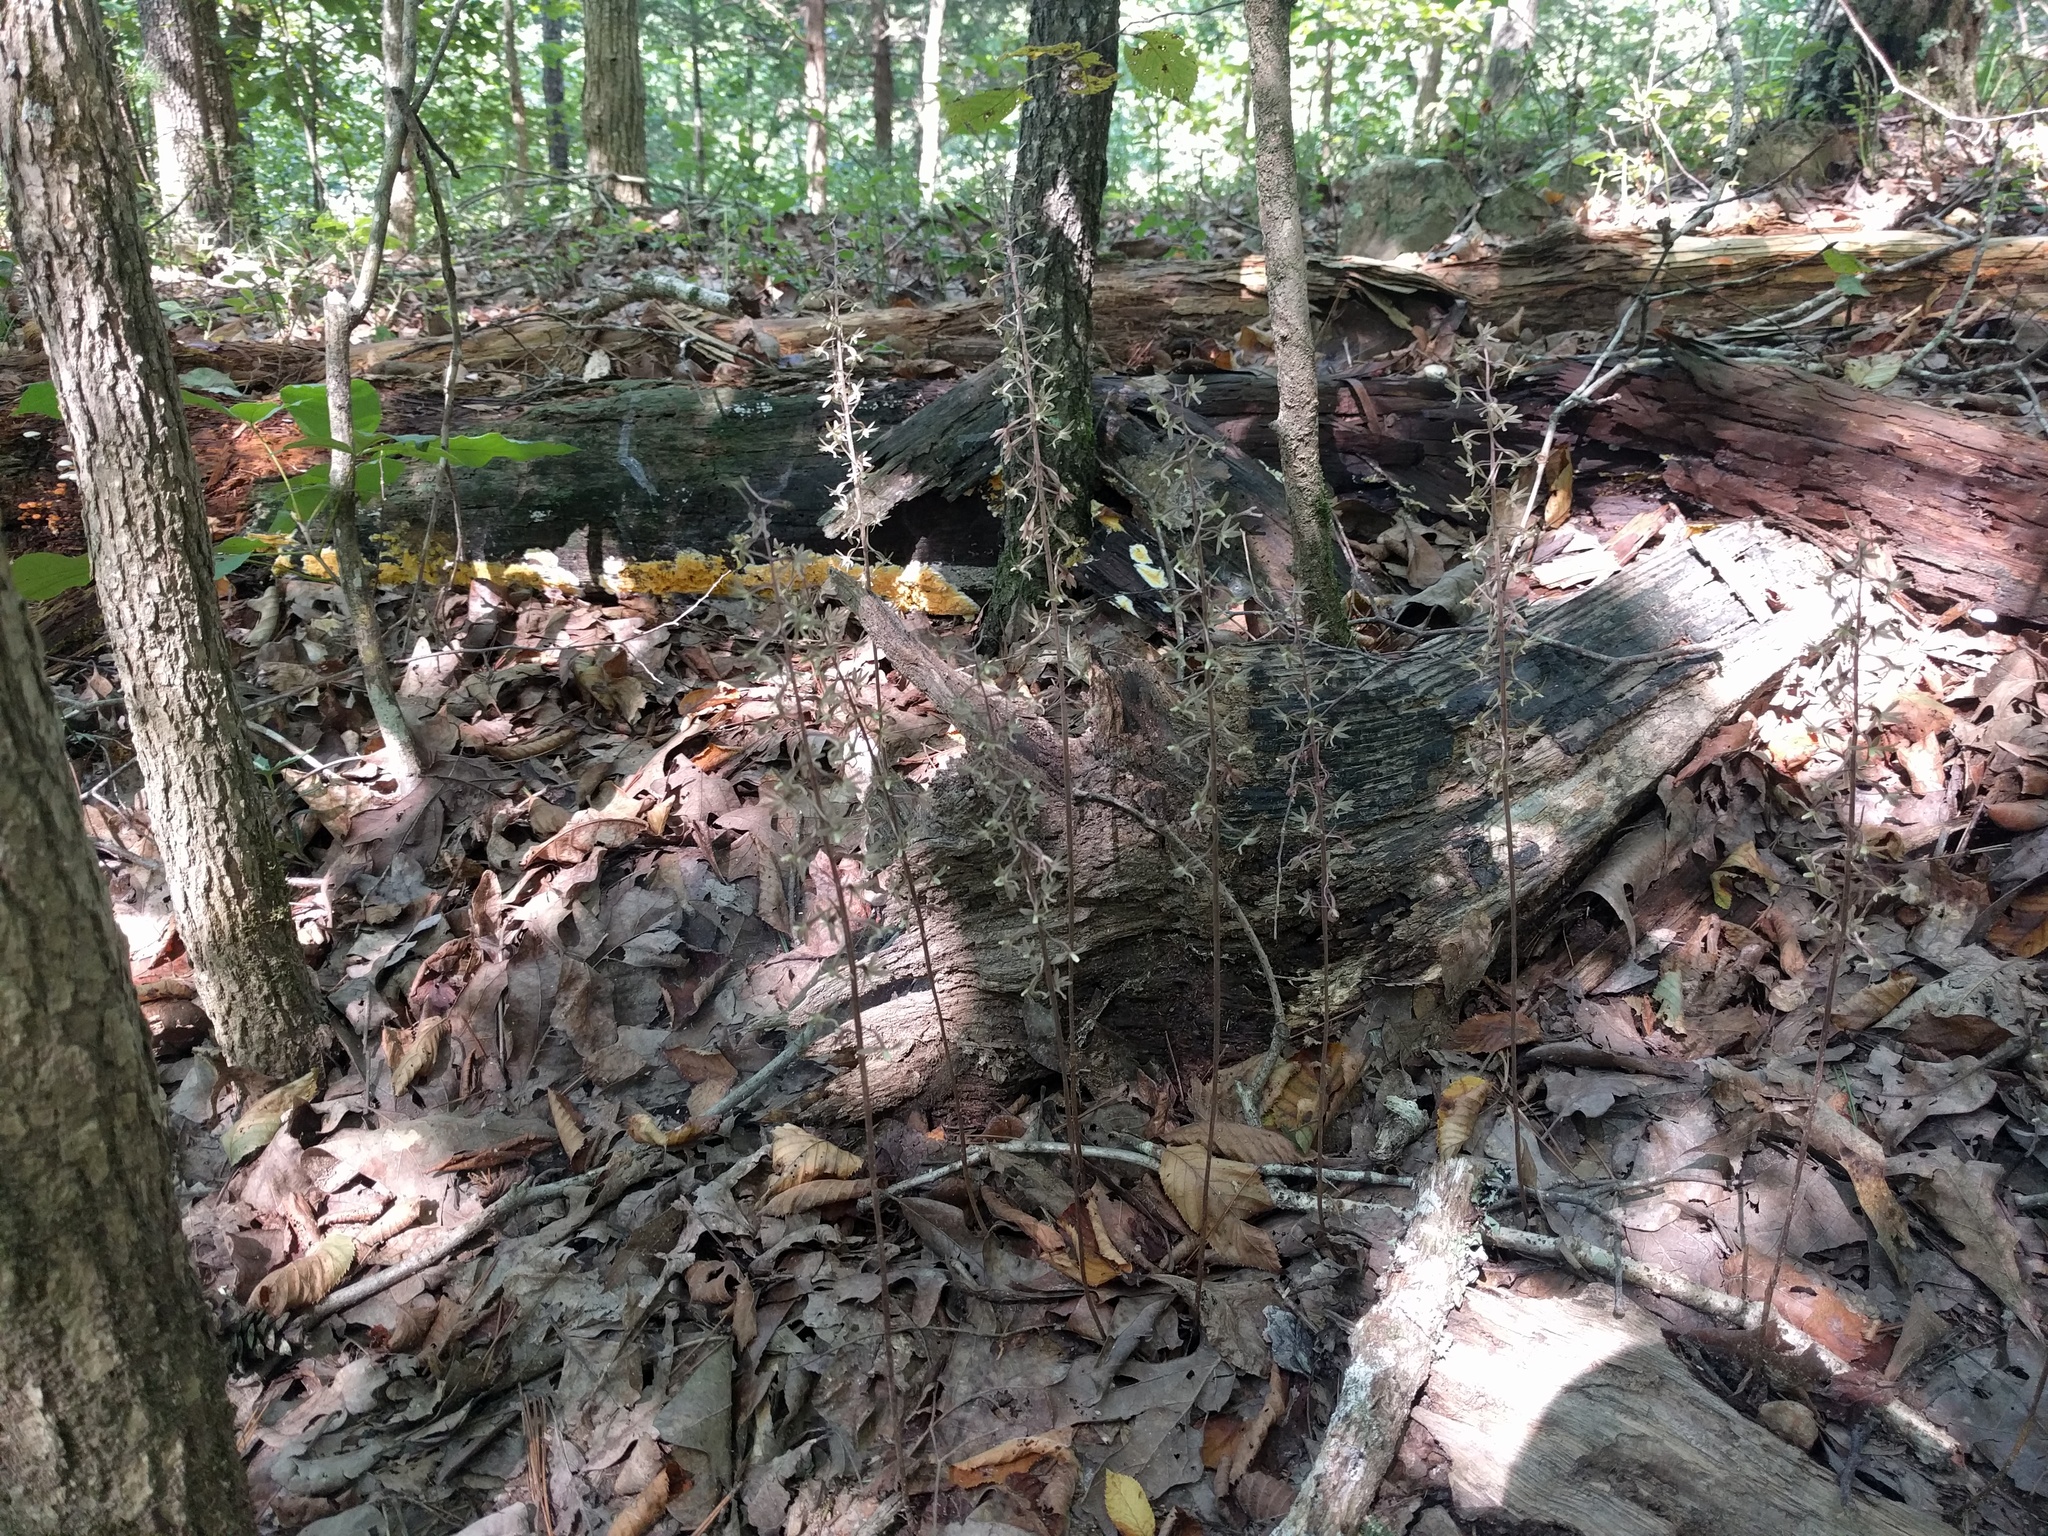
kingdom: Plantae
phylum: Tracheophyta
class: Liliopsida
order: Asparagales
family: Orchidaceae
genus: Tipularia
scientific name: Tipularia discolor
